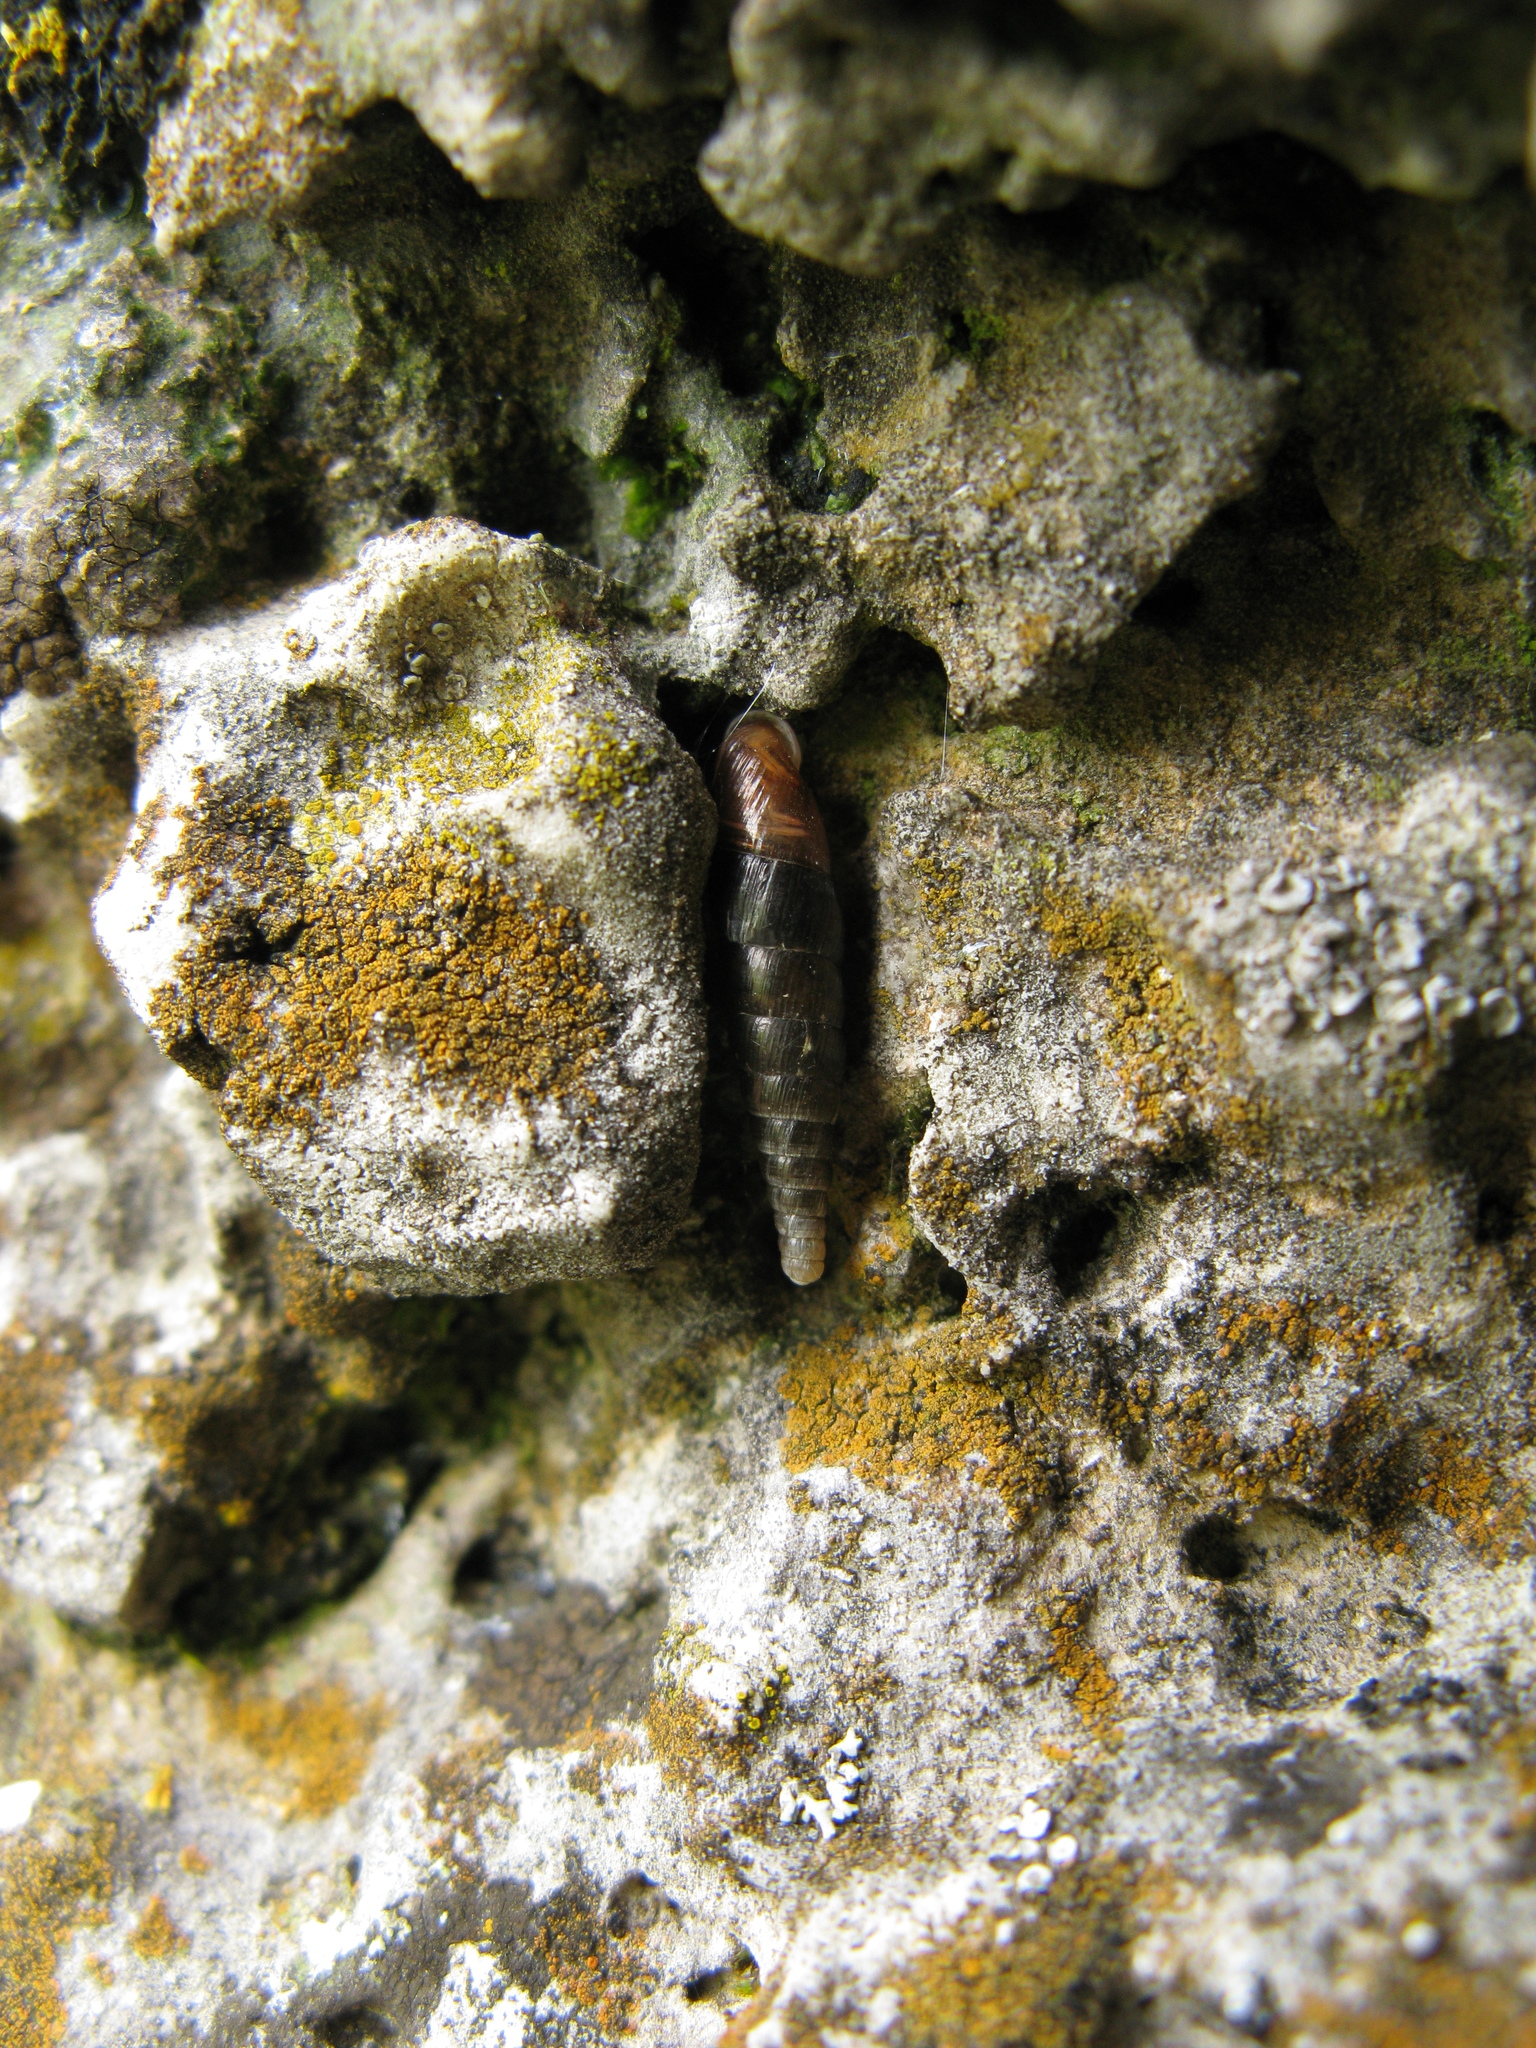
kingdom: Animalia
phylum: Mollusca
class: Gastropoda
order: Stylommatophora
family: Clausiliidae
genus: Cochlodina
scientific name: Cochlodina orthostoma
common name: Straightmouth door snail
